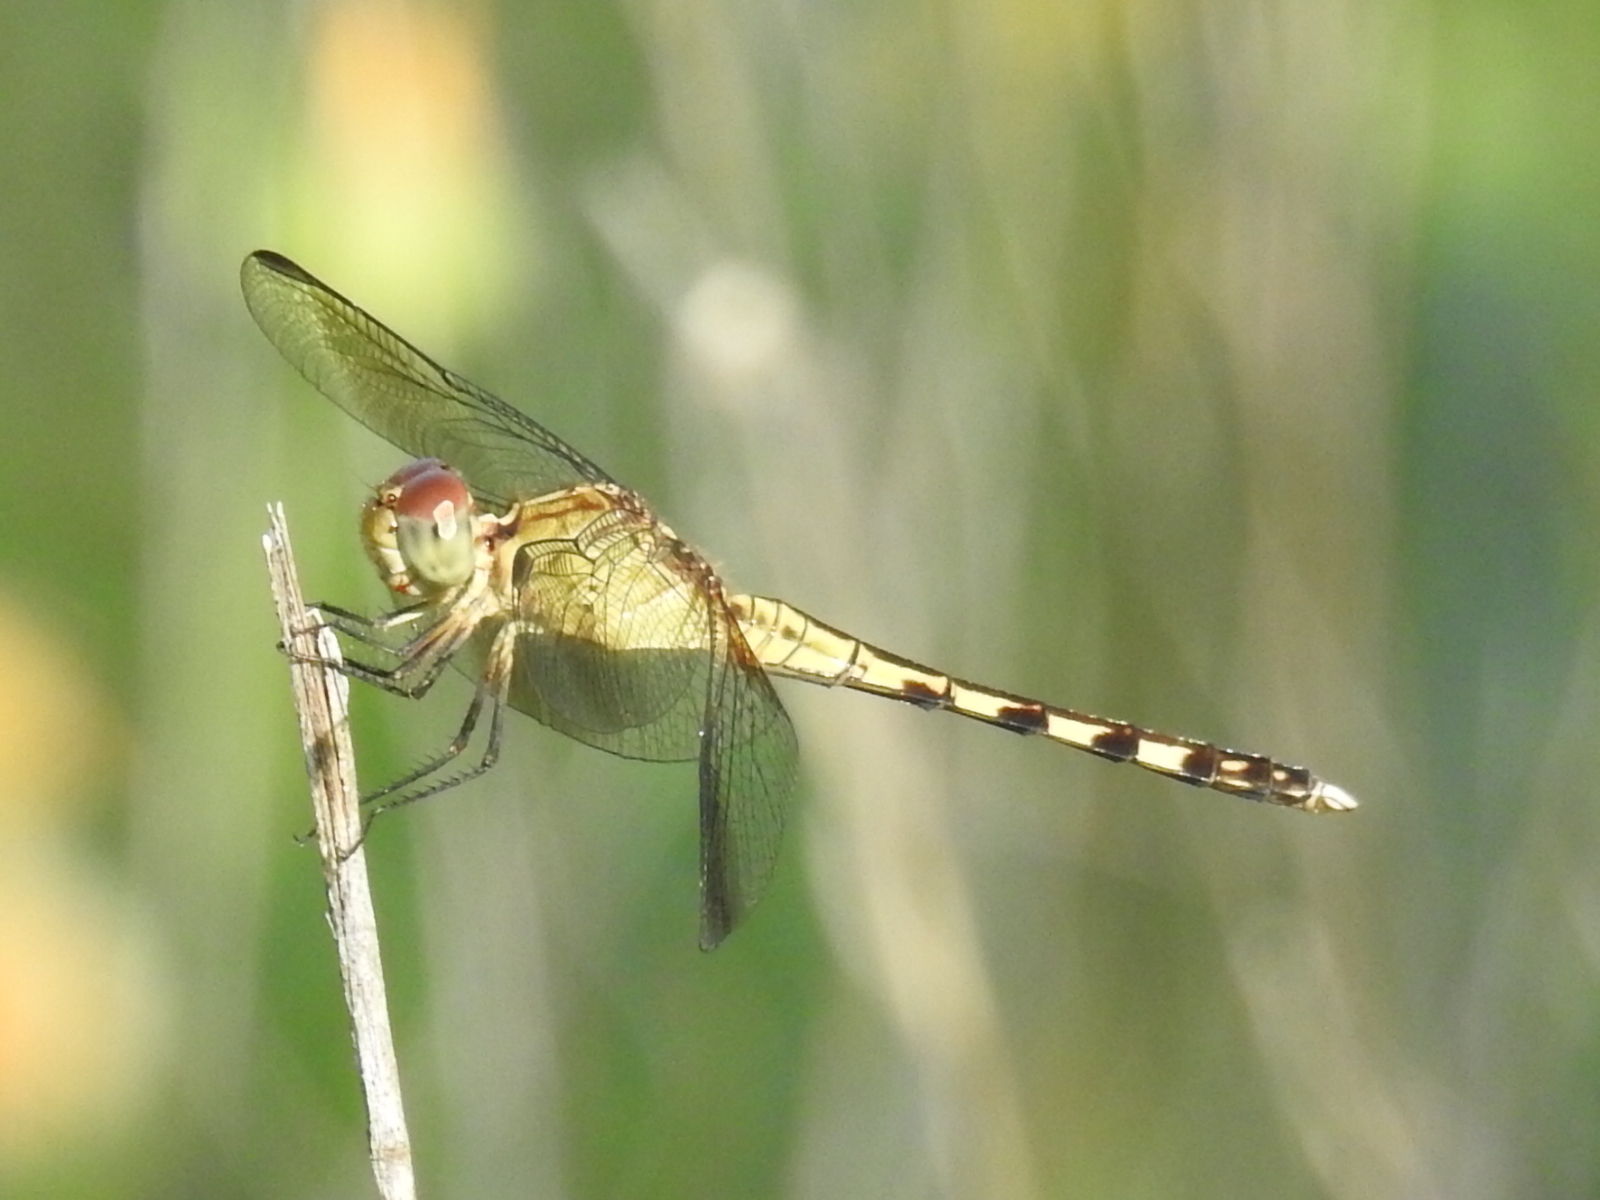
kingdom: Animalia
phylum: Arthropoda
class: Insecta
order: Odonata
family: Libellulidae
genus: Erythrodiplax
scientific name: Erythrodiplax umbrata
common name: Band-winged dragonlet
